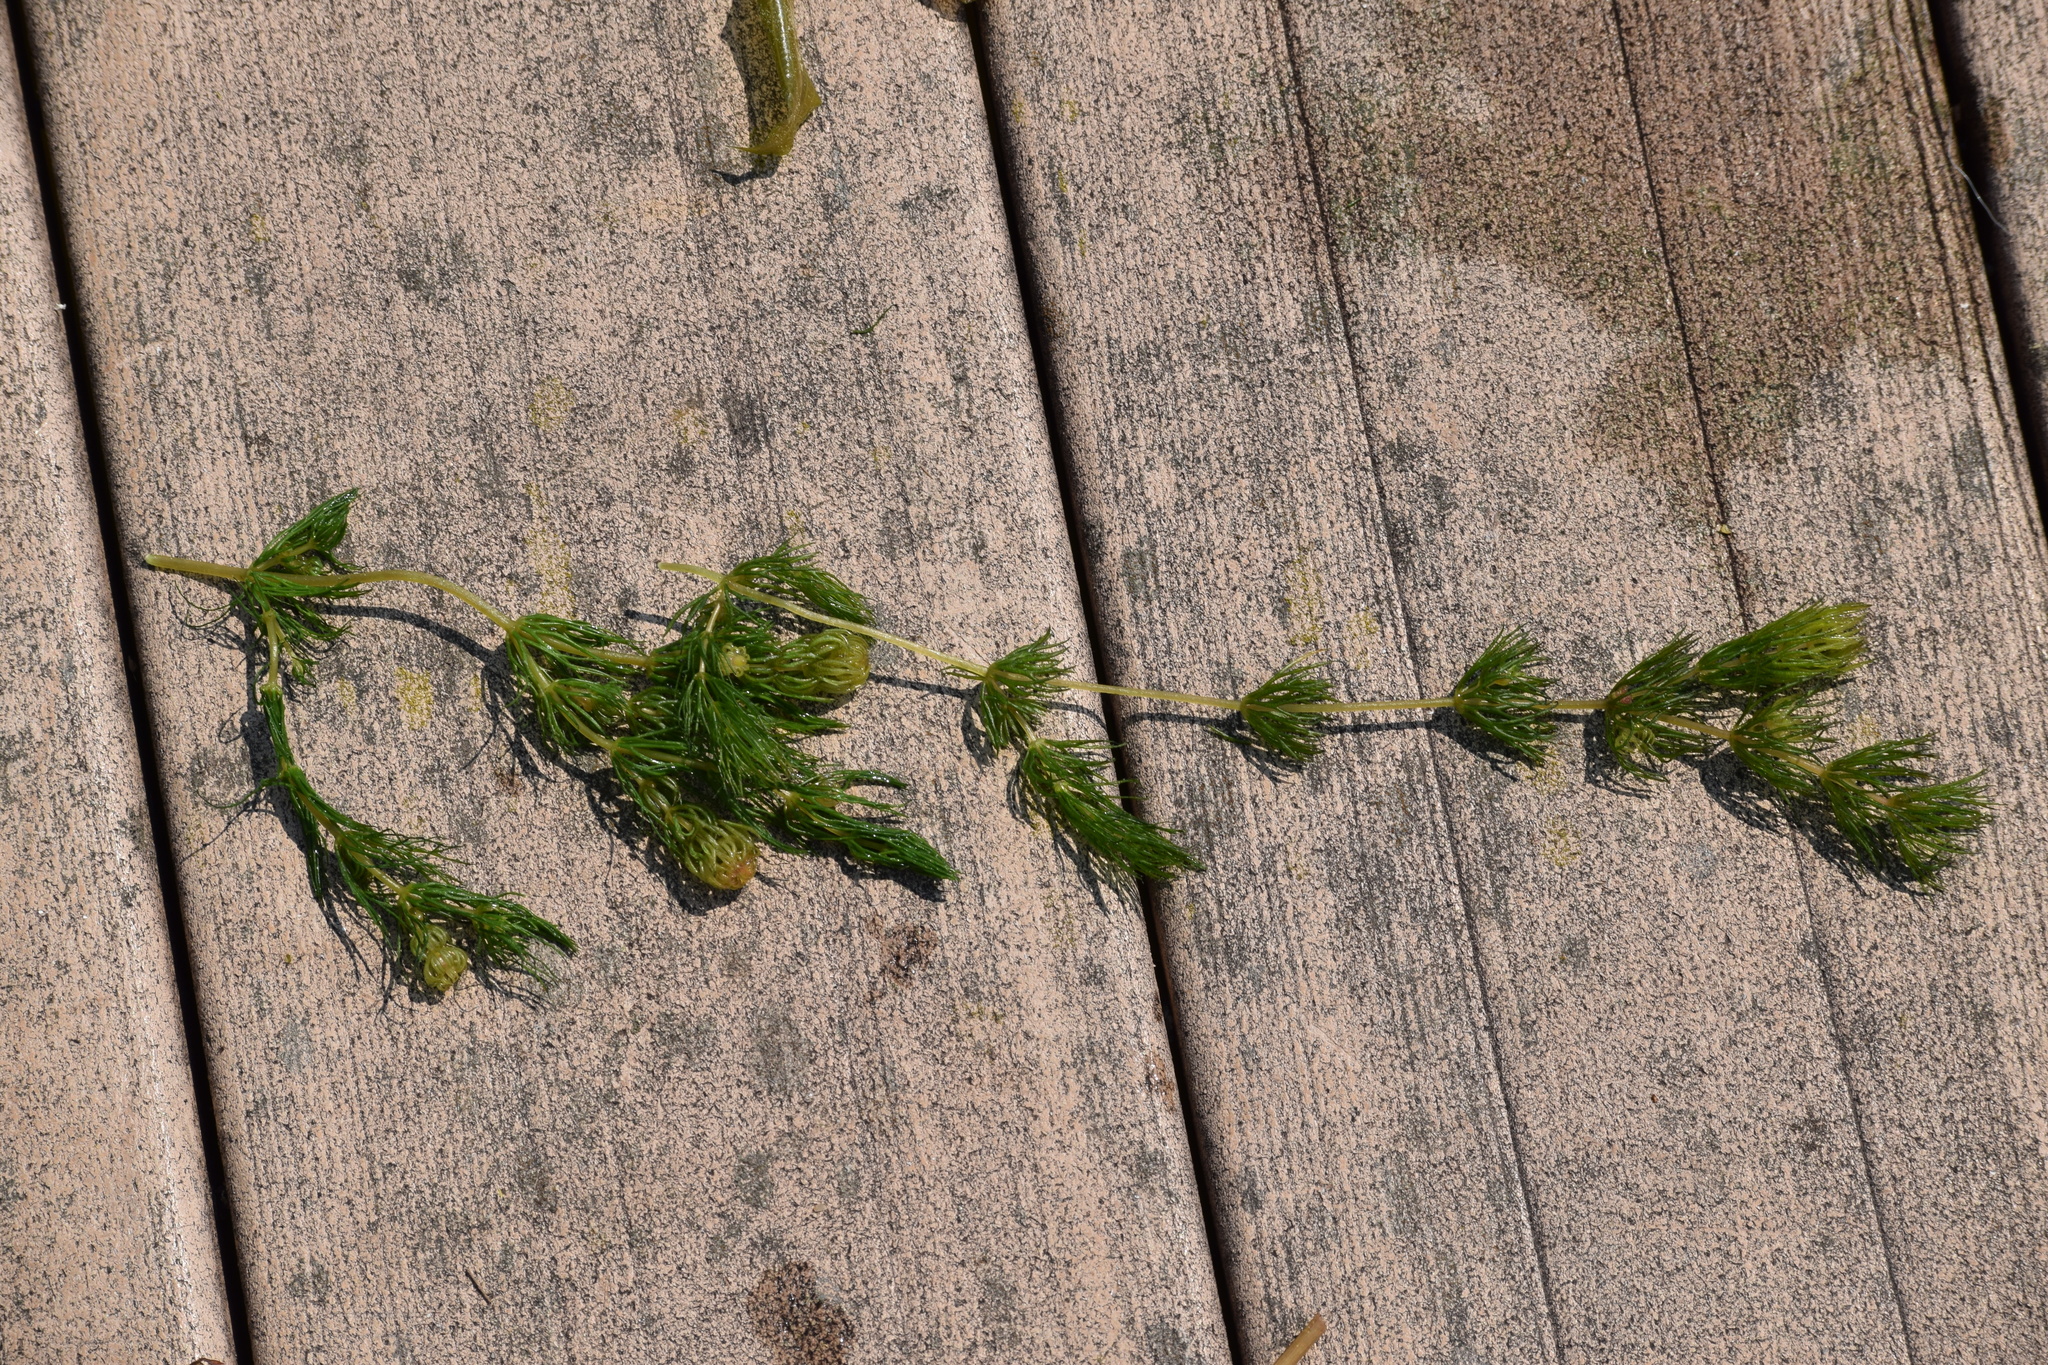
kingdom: Plantae
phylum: Tracheophyta
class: Magnoliopsida
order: Ceratophyllales
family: Ceratophyllaceae
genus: Ceratophyllum
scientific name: Ceratophyllum demersum
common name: Rigid hornwort
